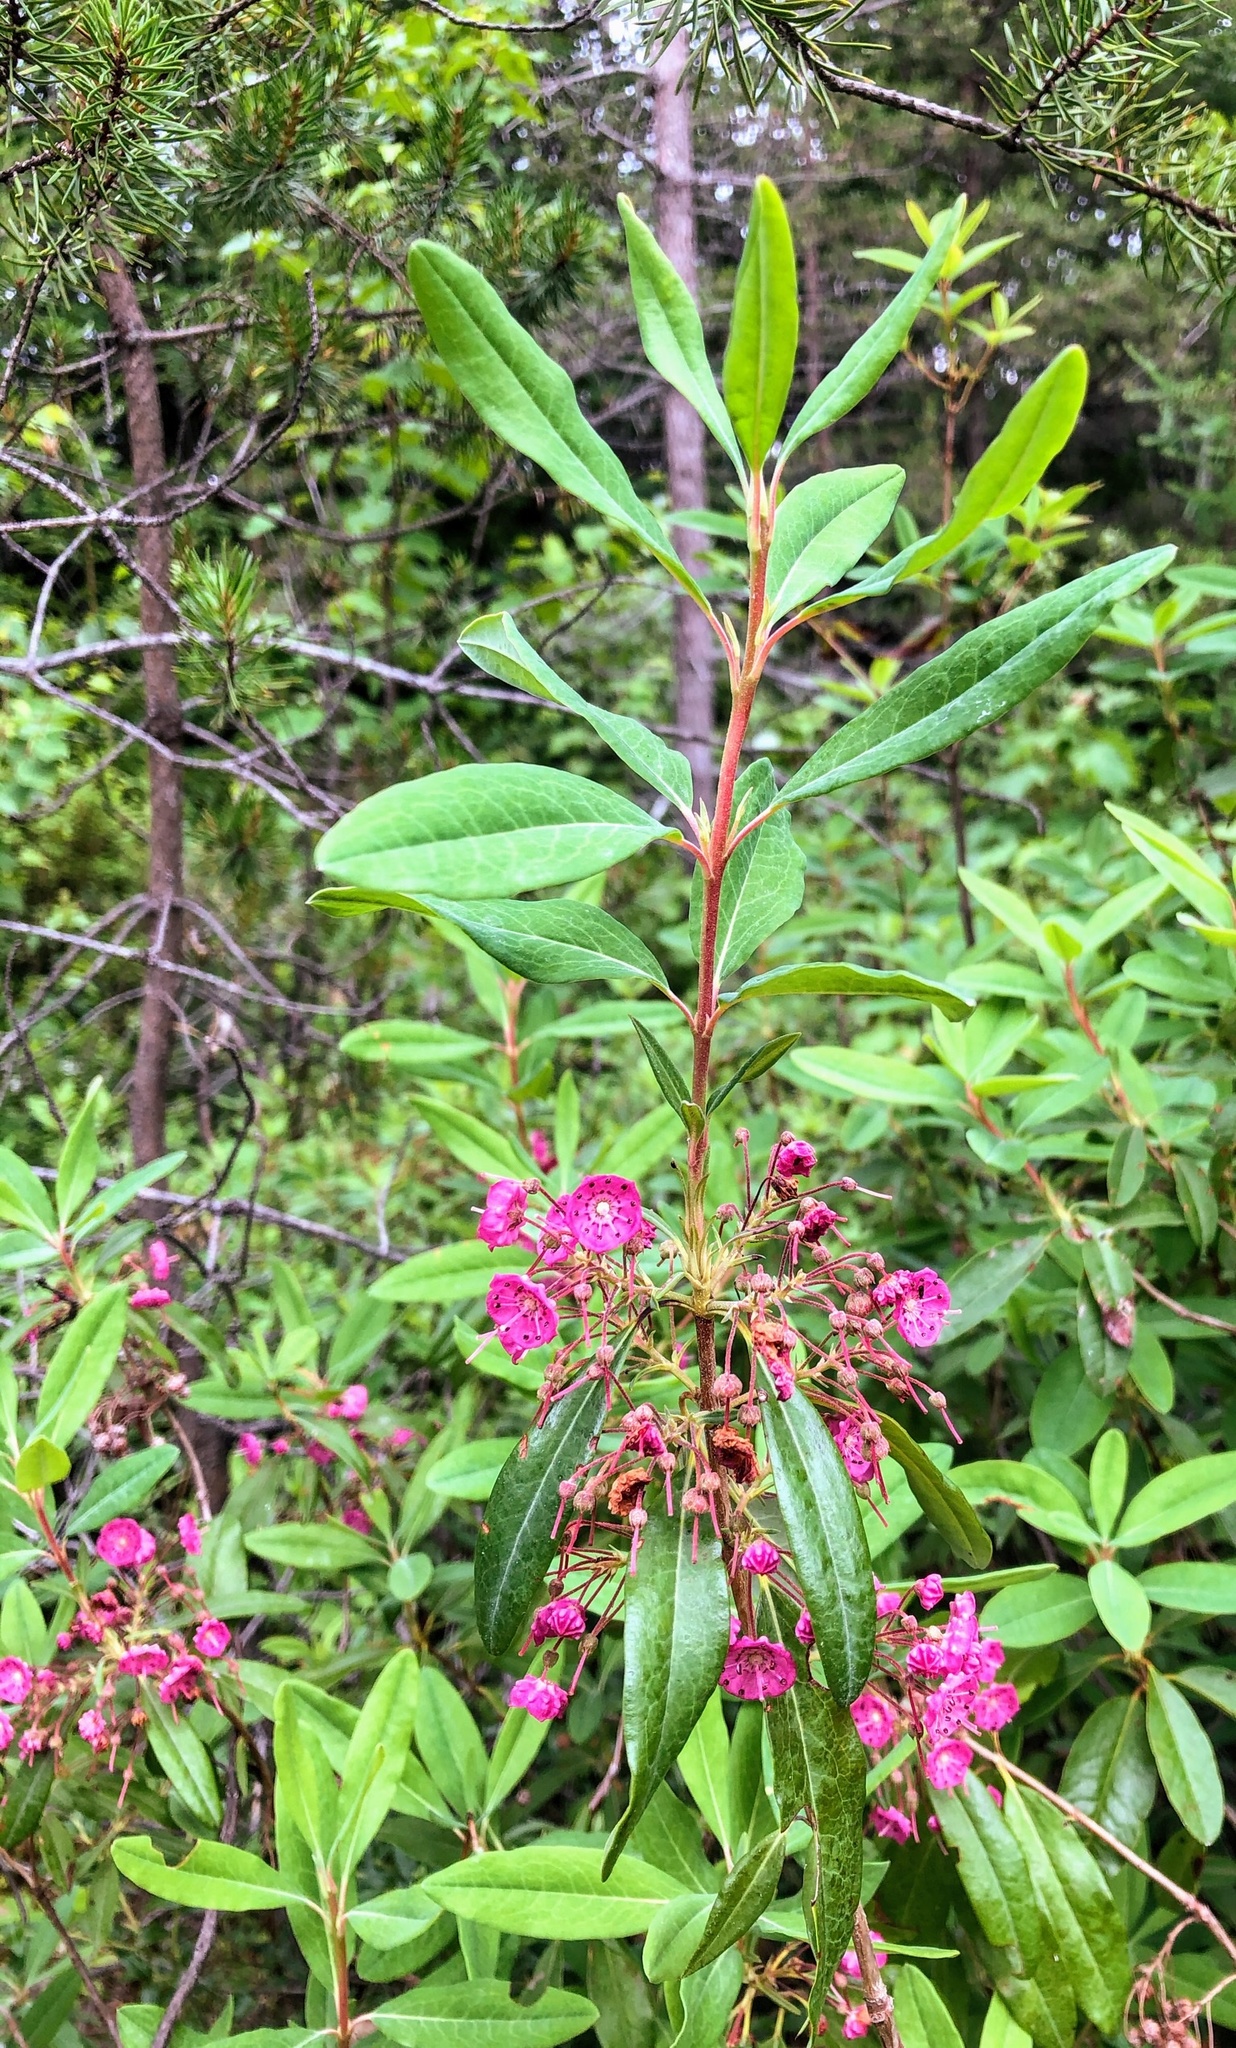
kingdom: Plantae
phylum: Tracheophyta
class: Magnoliopsida
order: Ericales
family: Ericaceae
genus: Kalmia
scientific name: Kalmia angustifolia
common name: Sheep-laurel
